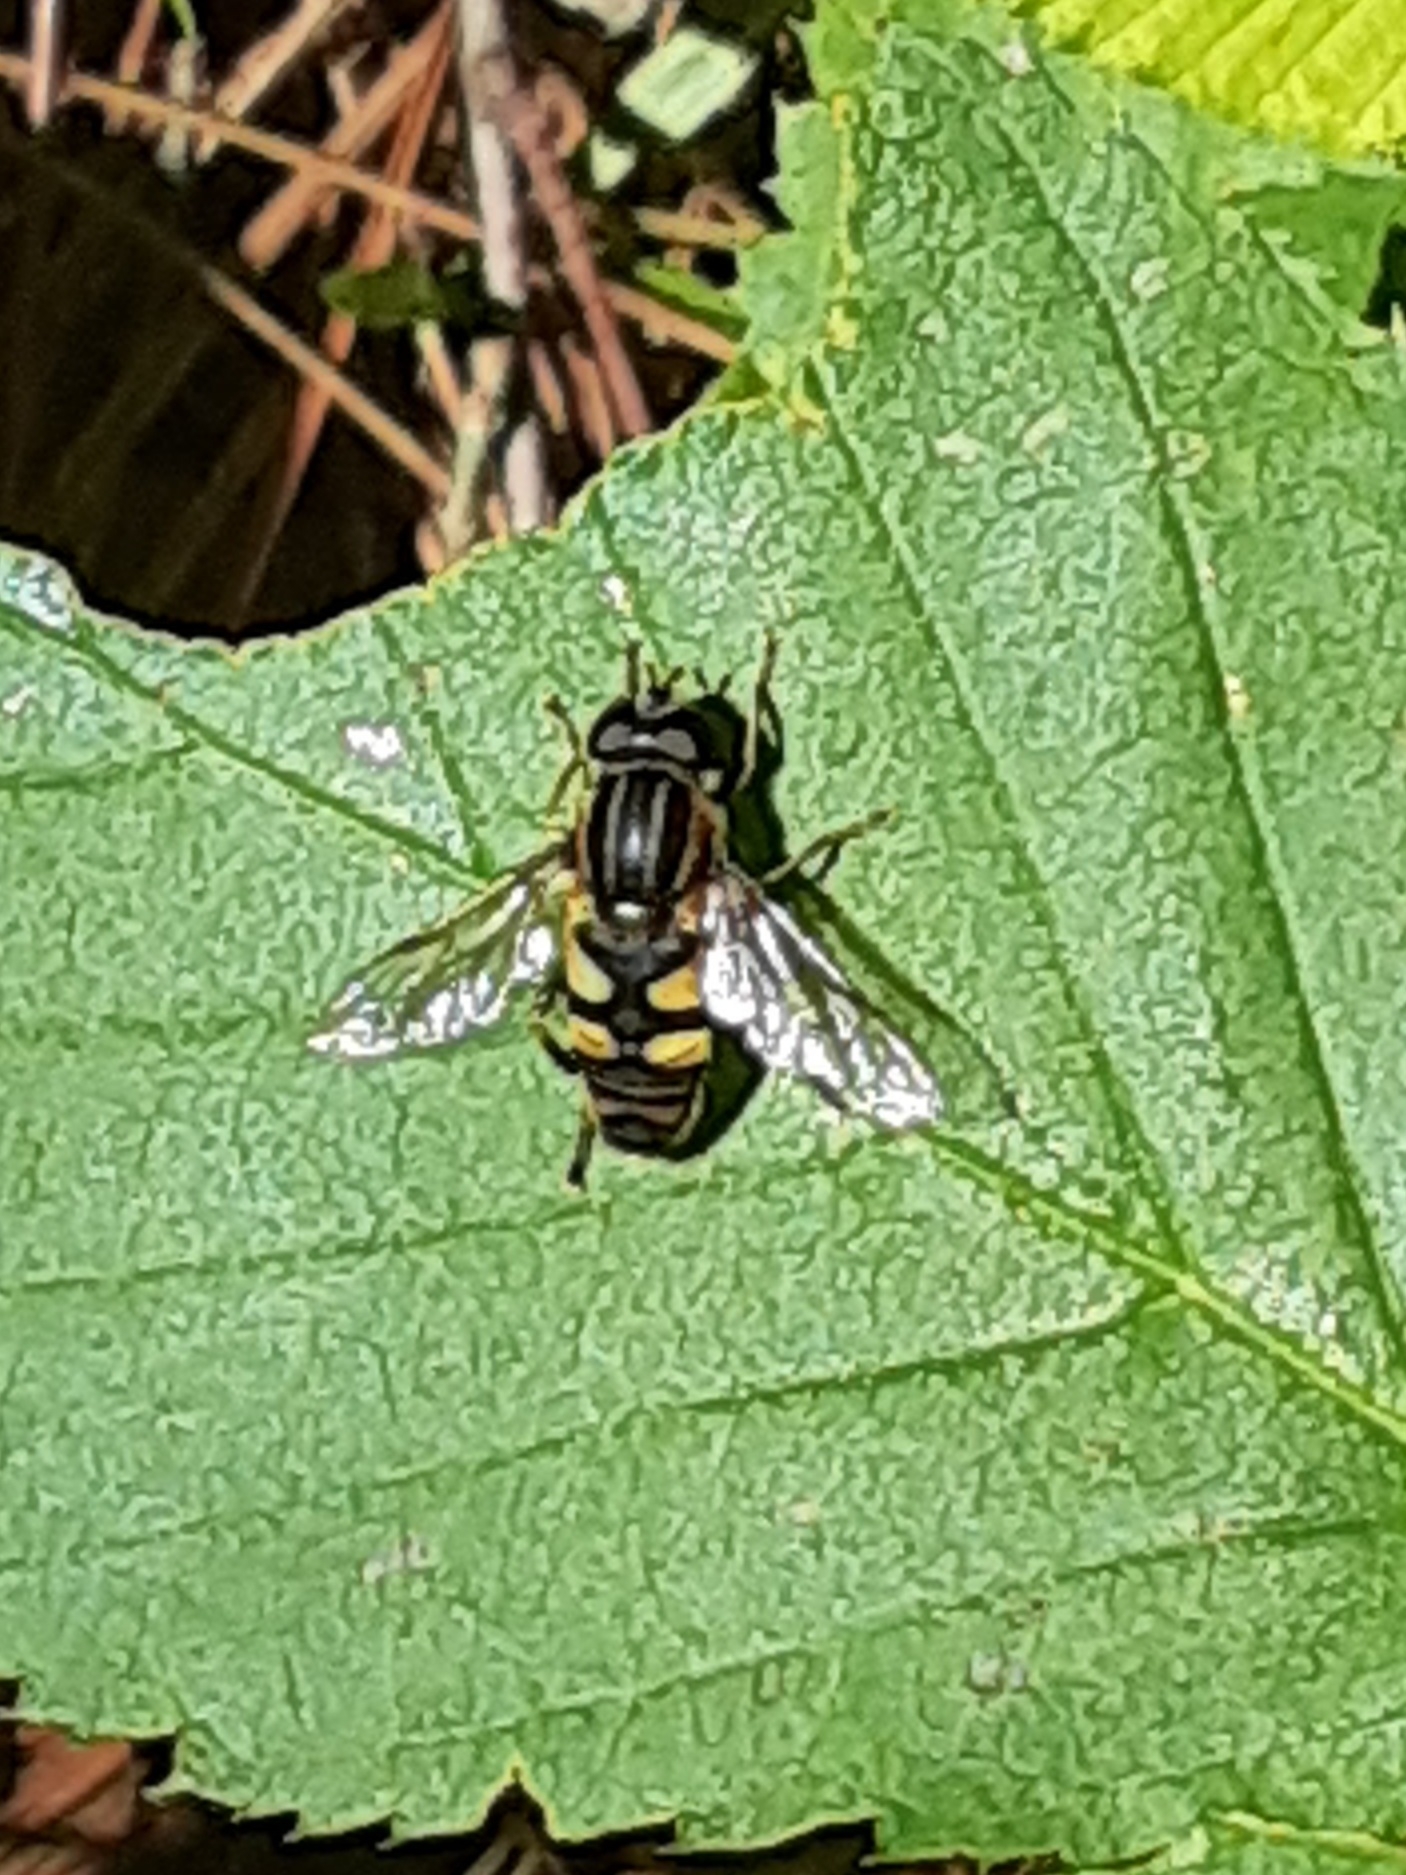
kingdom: Animalia
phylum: Arthropoda
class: Insecta
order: Diptera
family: Syrphidae
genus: Helophilus
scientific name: Helophilus fasciatus
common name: Narrow-headed marsh fly
